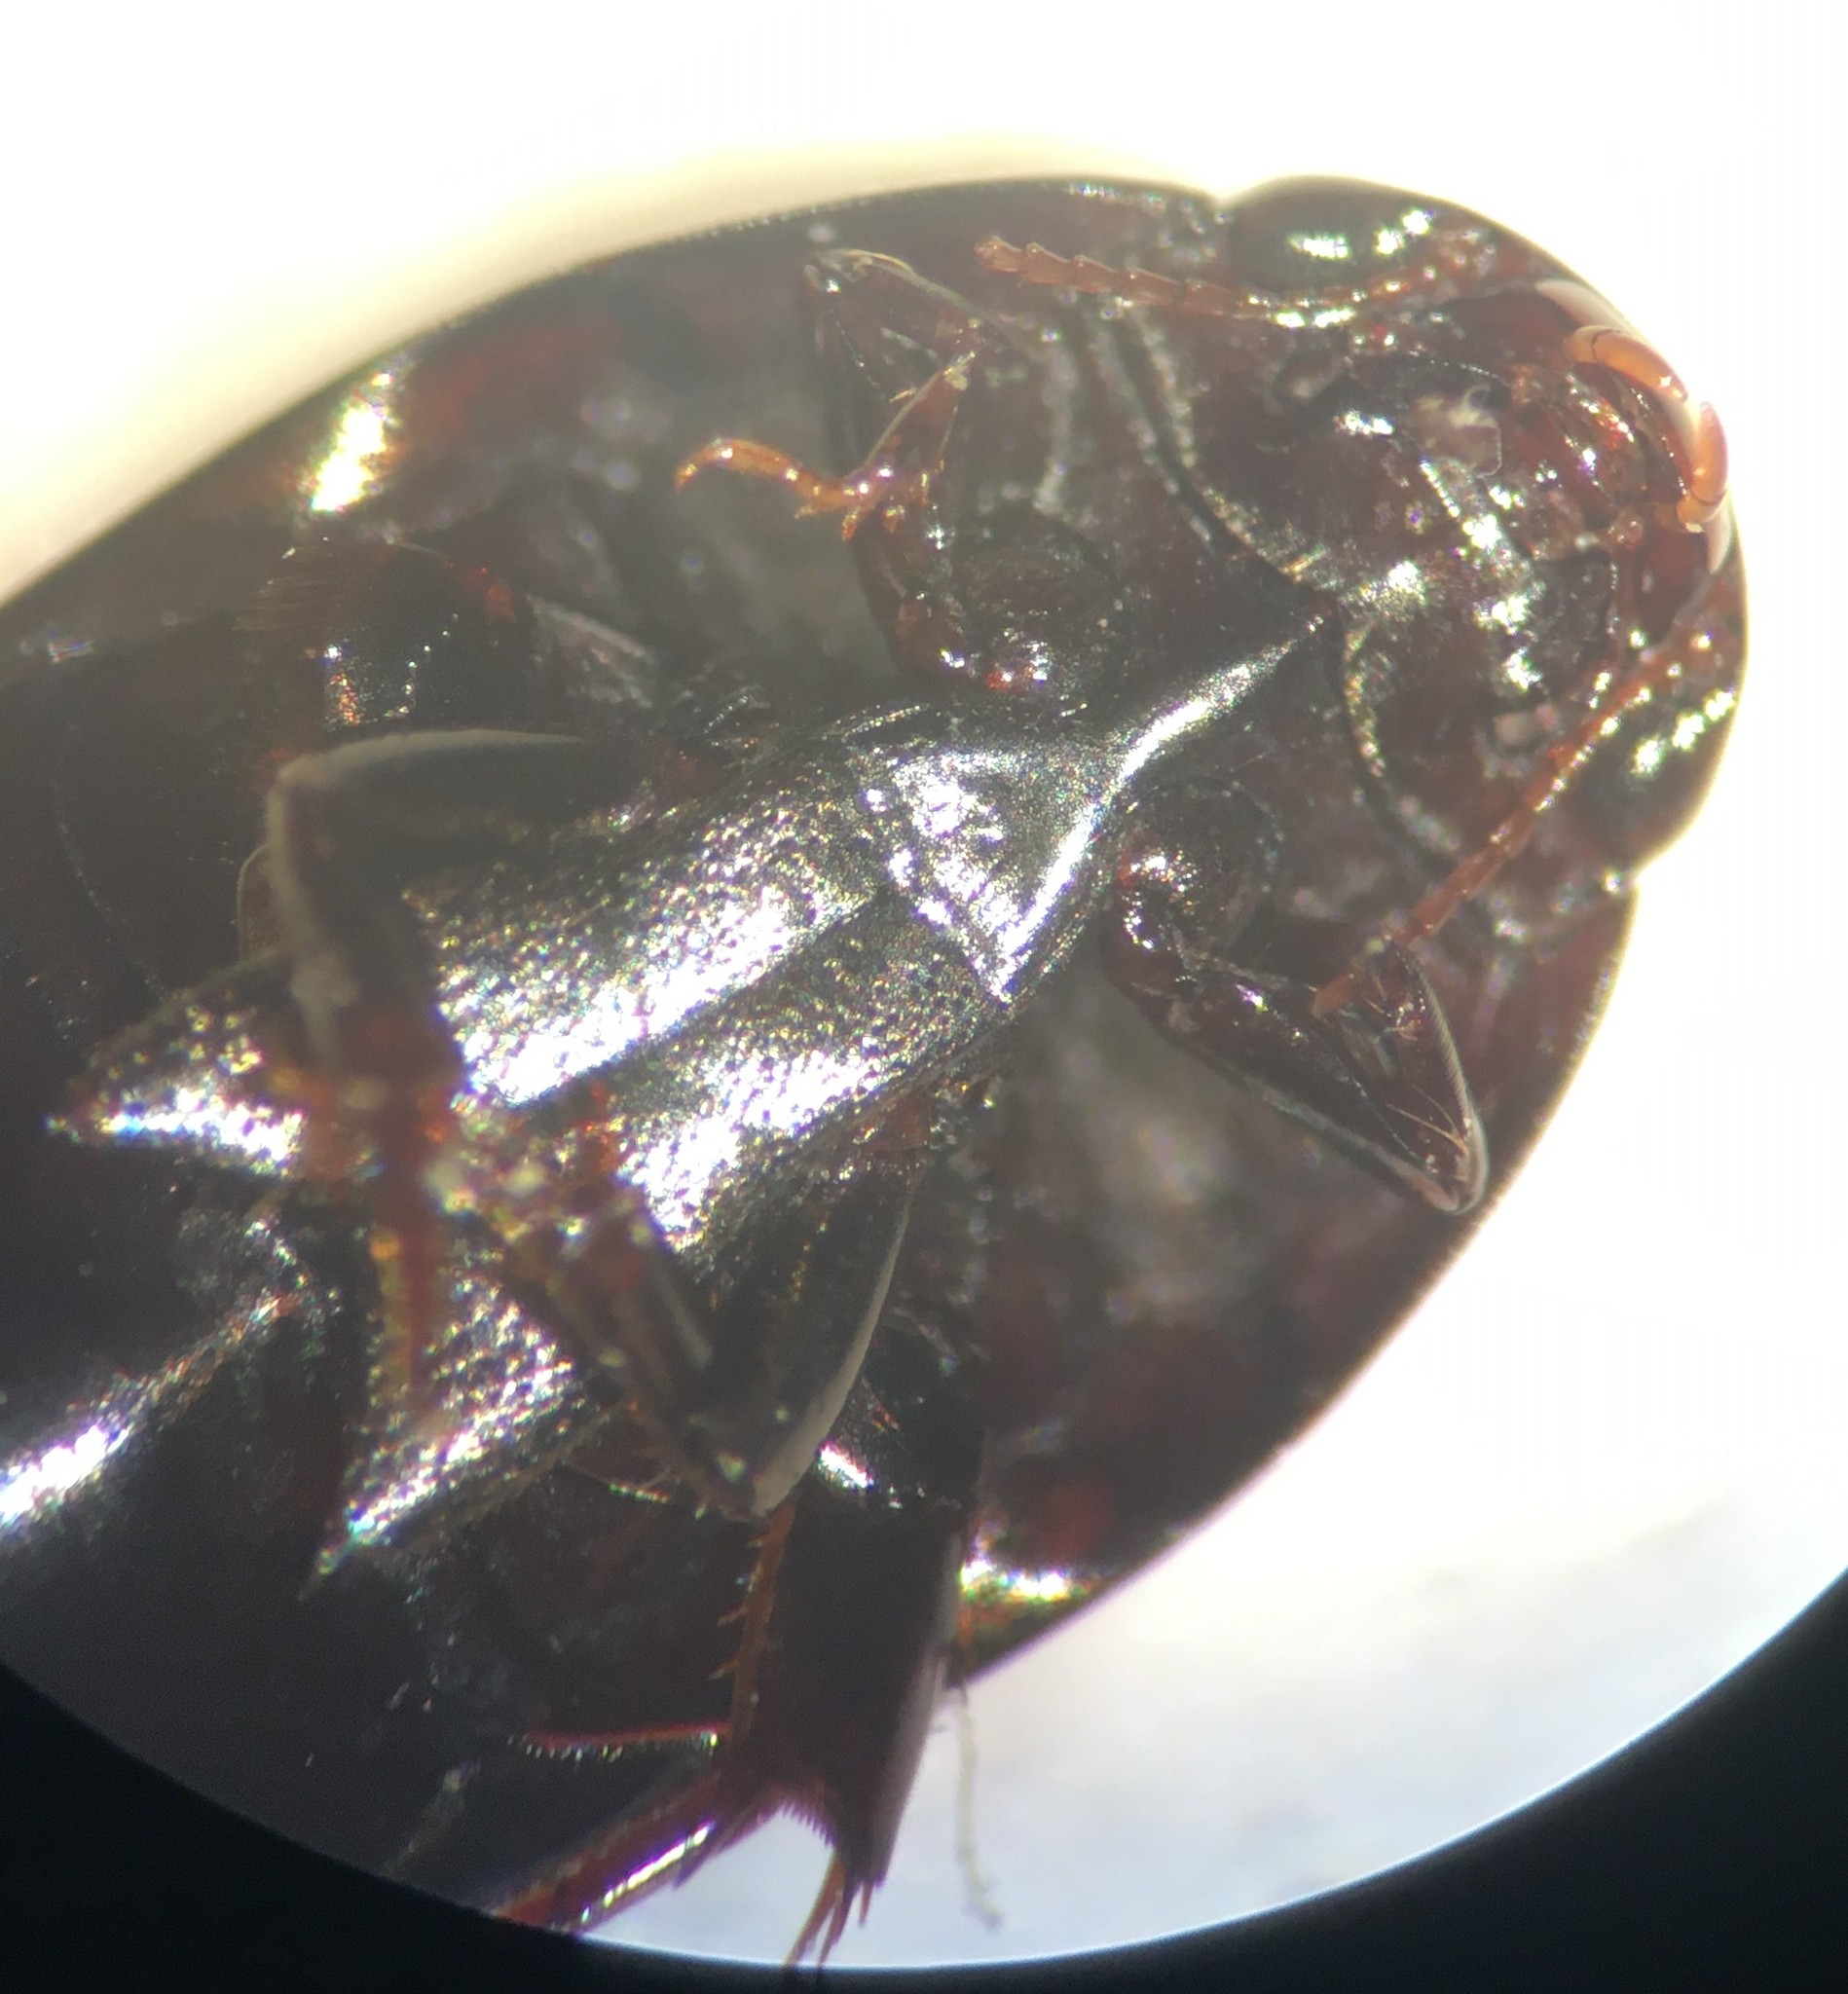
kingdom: Animalia
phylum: Arthropoda
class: Insecta
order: Coleoptera
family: Noteridae
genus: Hydrocanthus
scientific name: Hydrocanthus regius
